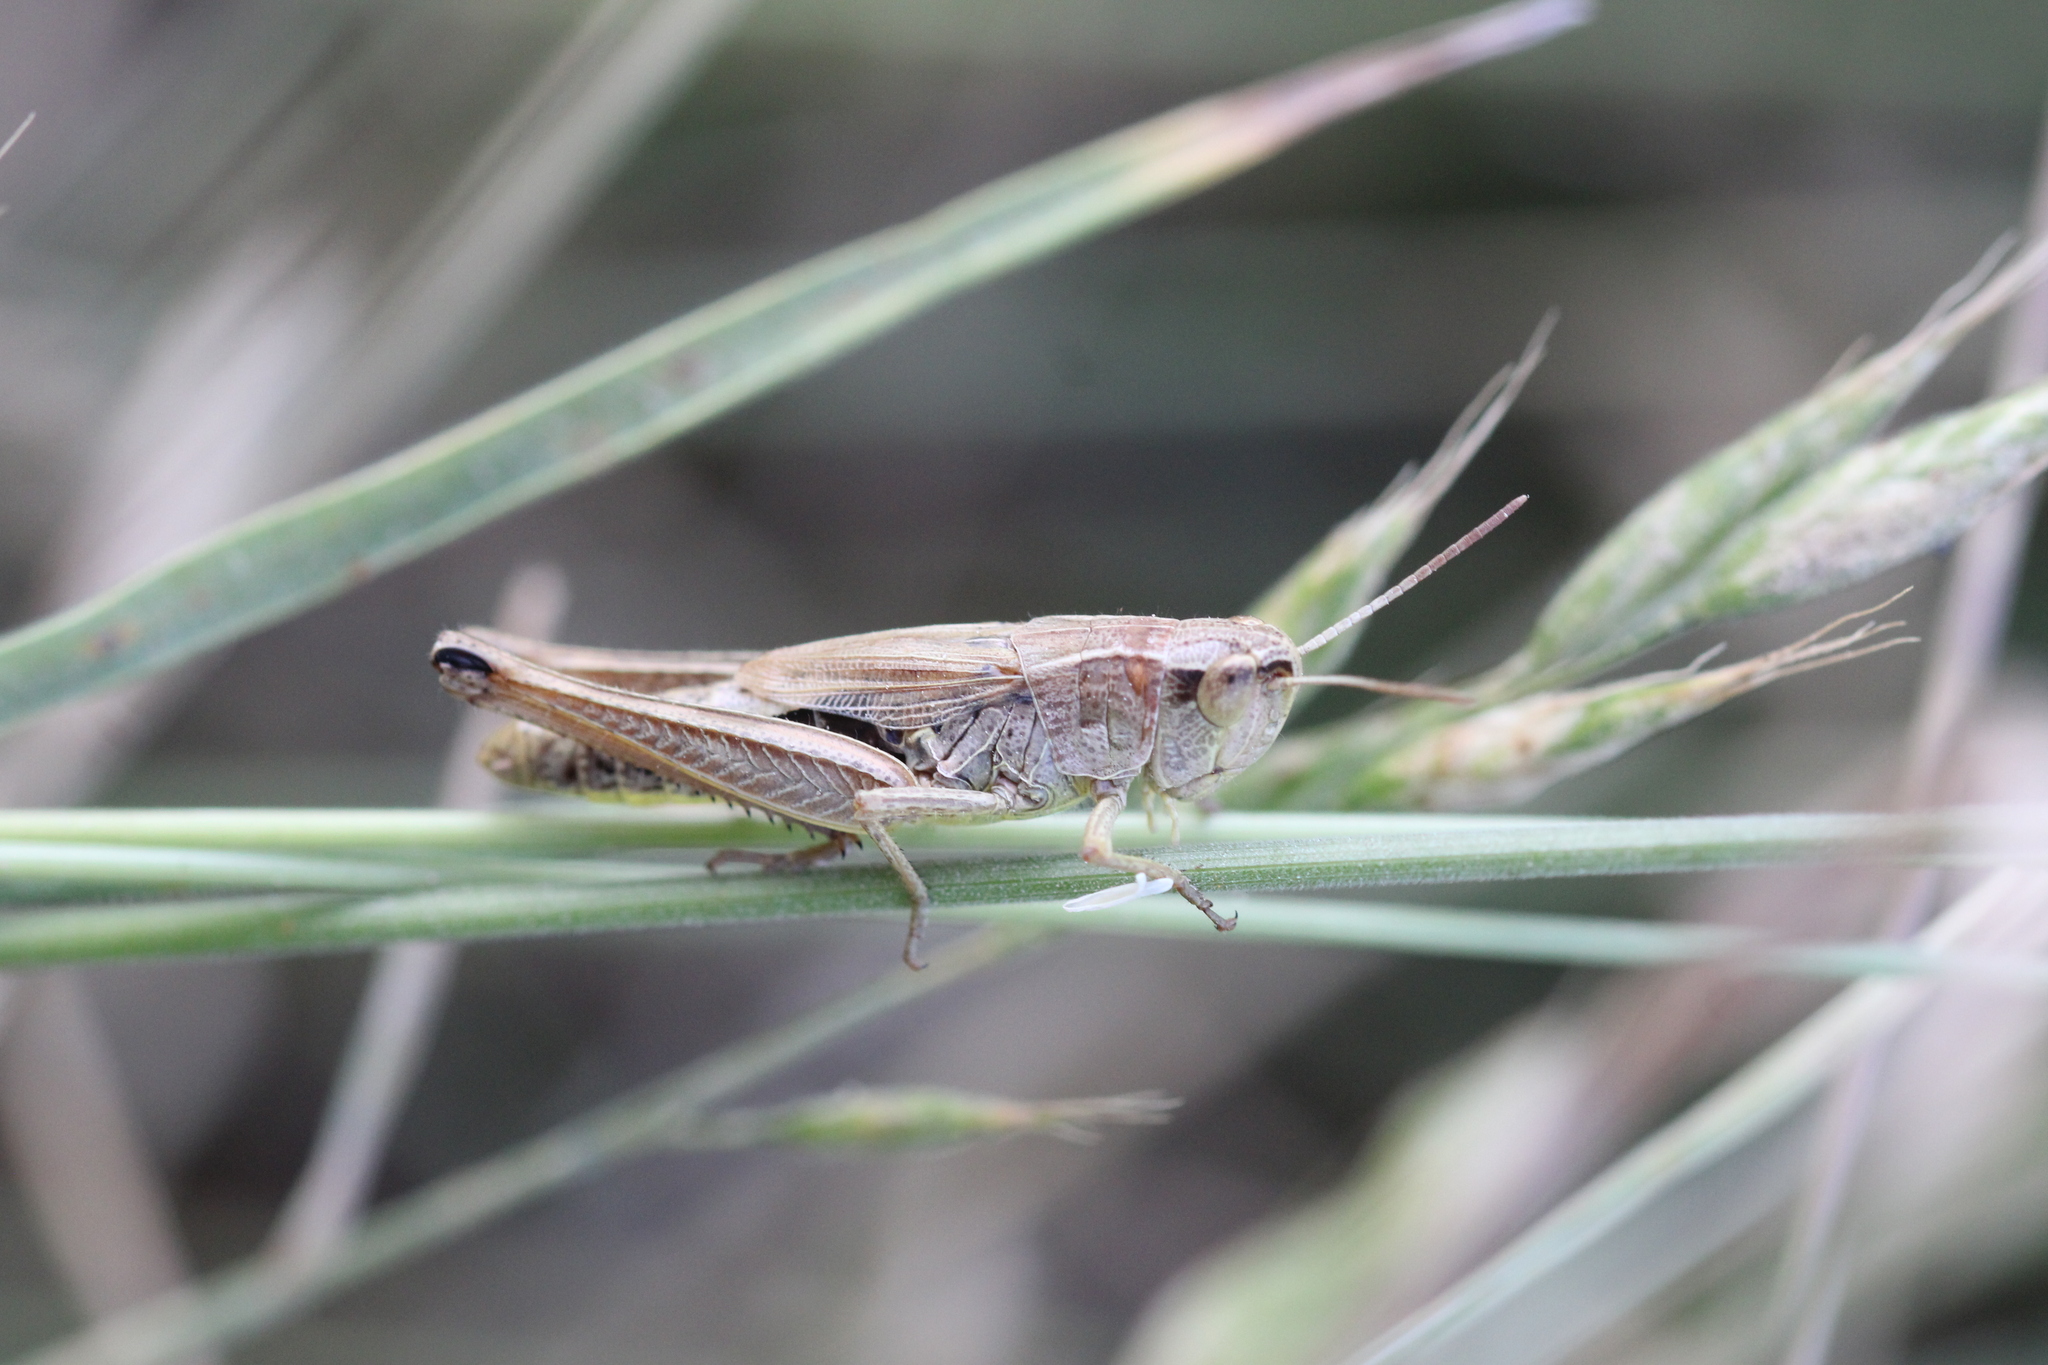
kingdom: Animalia
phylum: Arthropoda
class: Insecta
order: Orthoptera
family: Acrididae
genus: Pseudochorthippus
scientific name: Pseudochorthippus parallelus
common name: Meadow grasshopper
